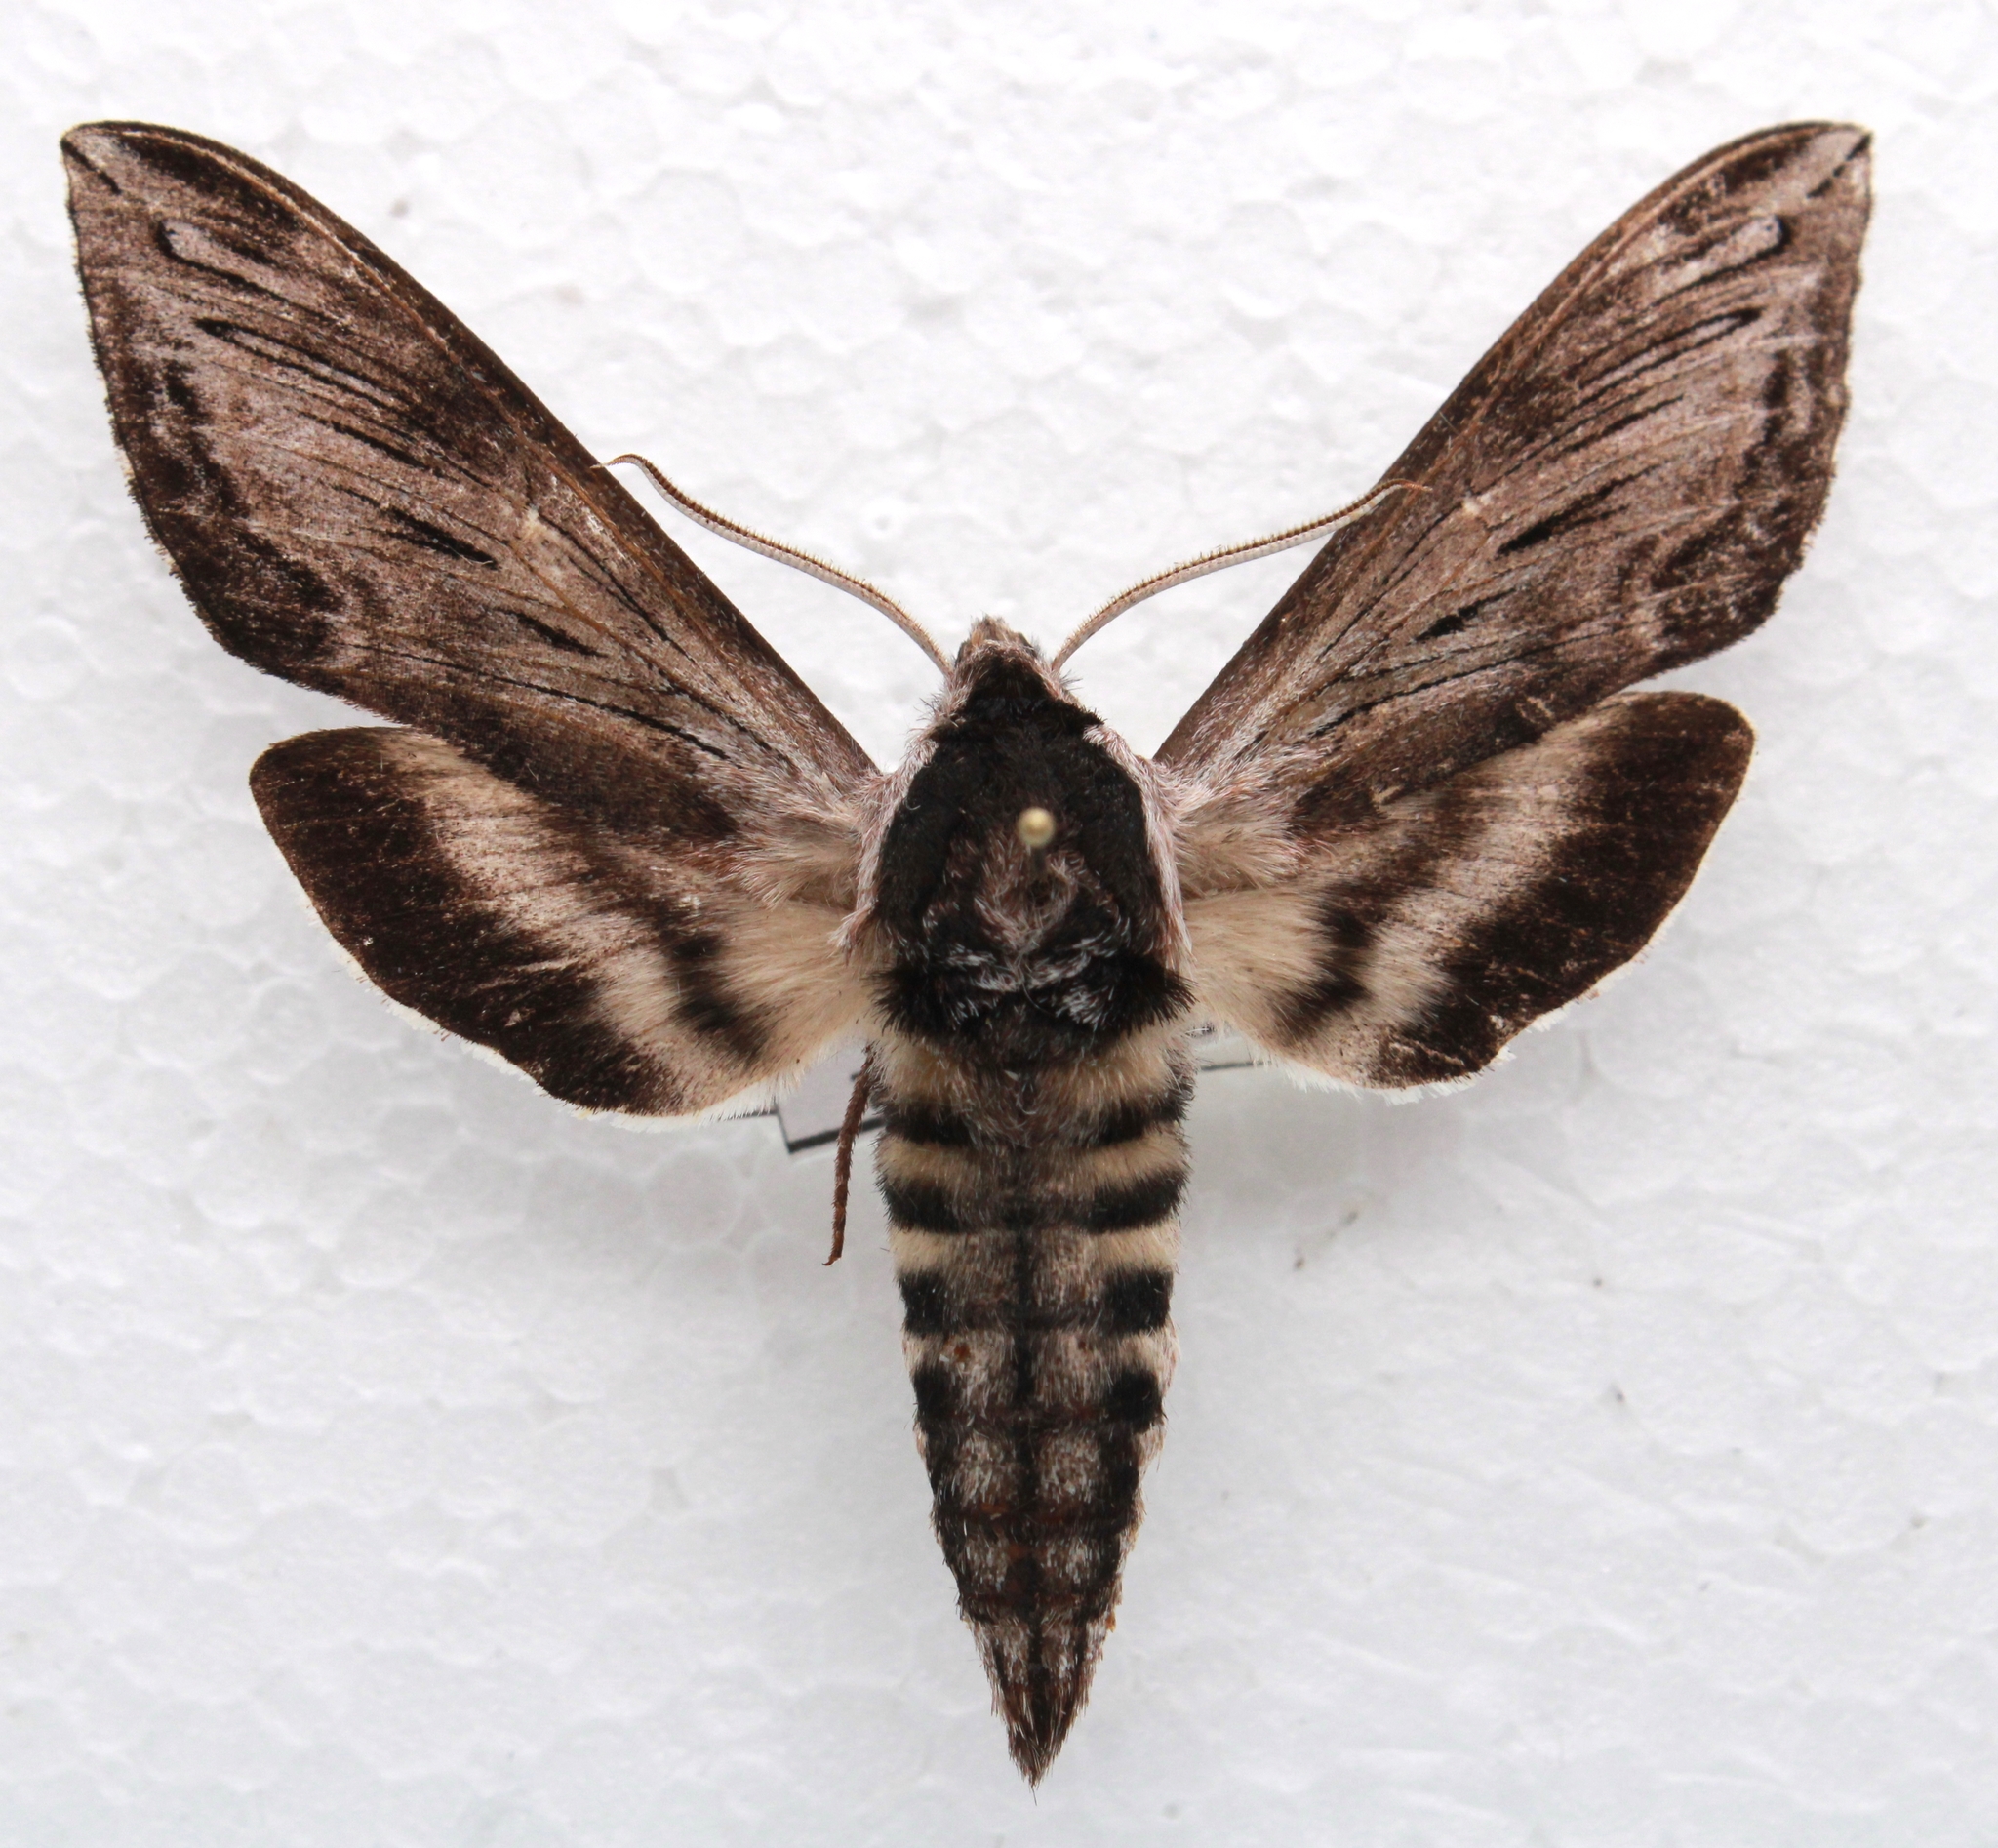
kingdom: Animalia
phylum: Arthropoda
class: Insecta
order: Lepidoptera
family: Sphingidae
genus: Sphinx
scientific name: Sphinx poecila
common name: Northern apple sphinx
